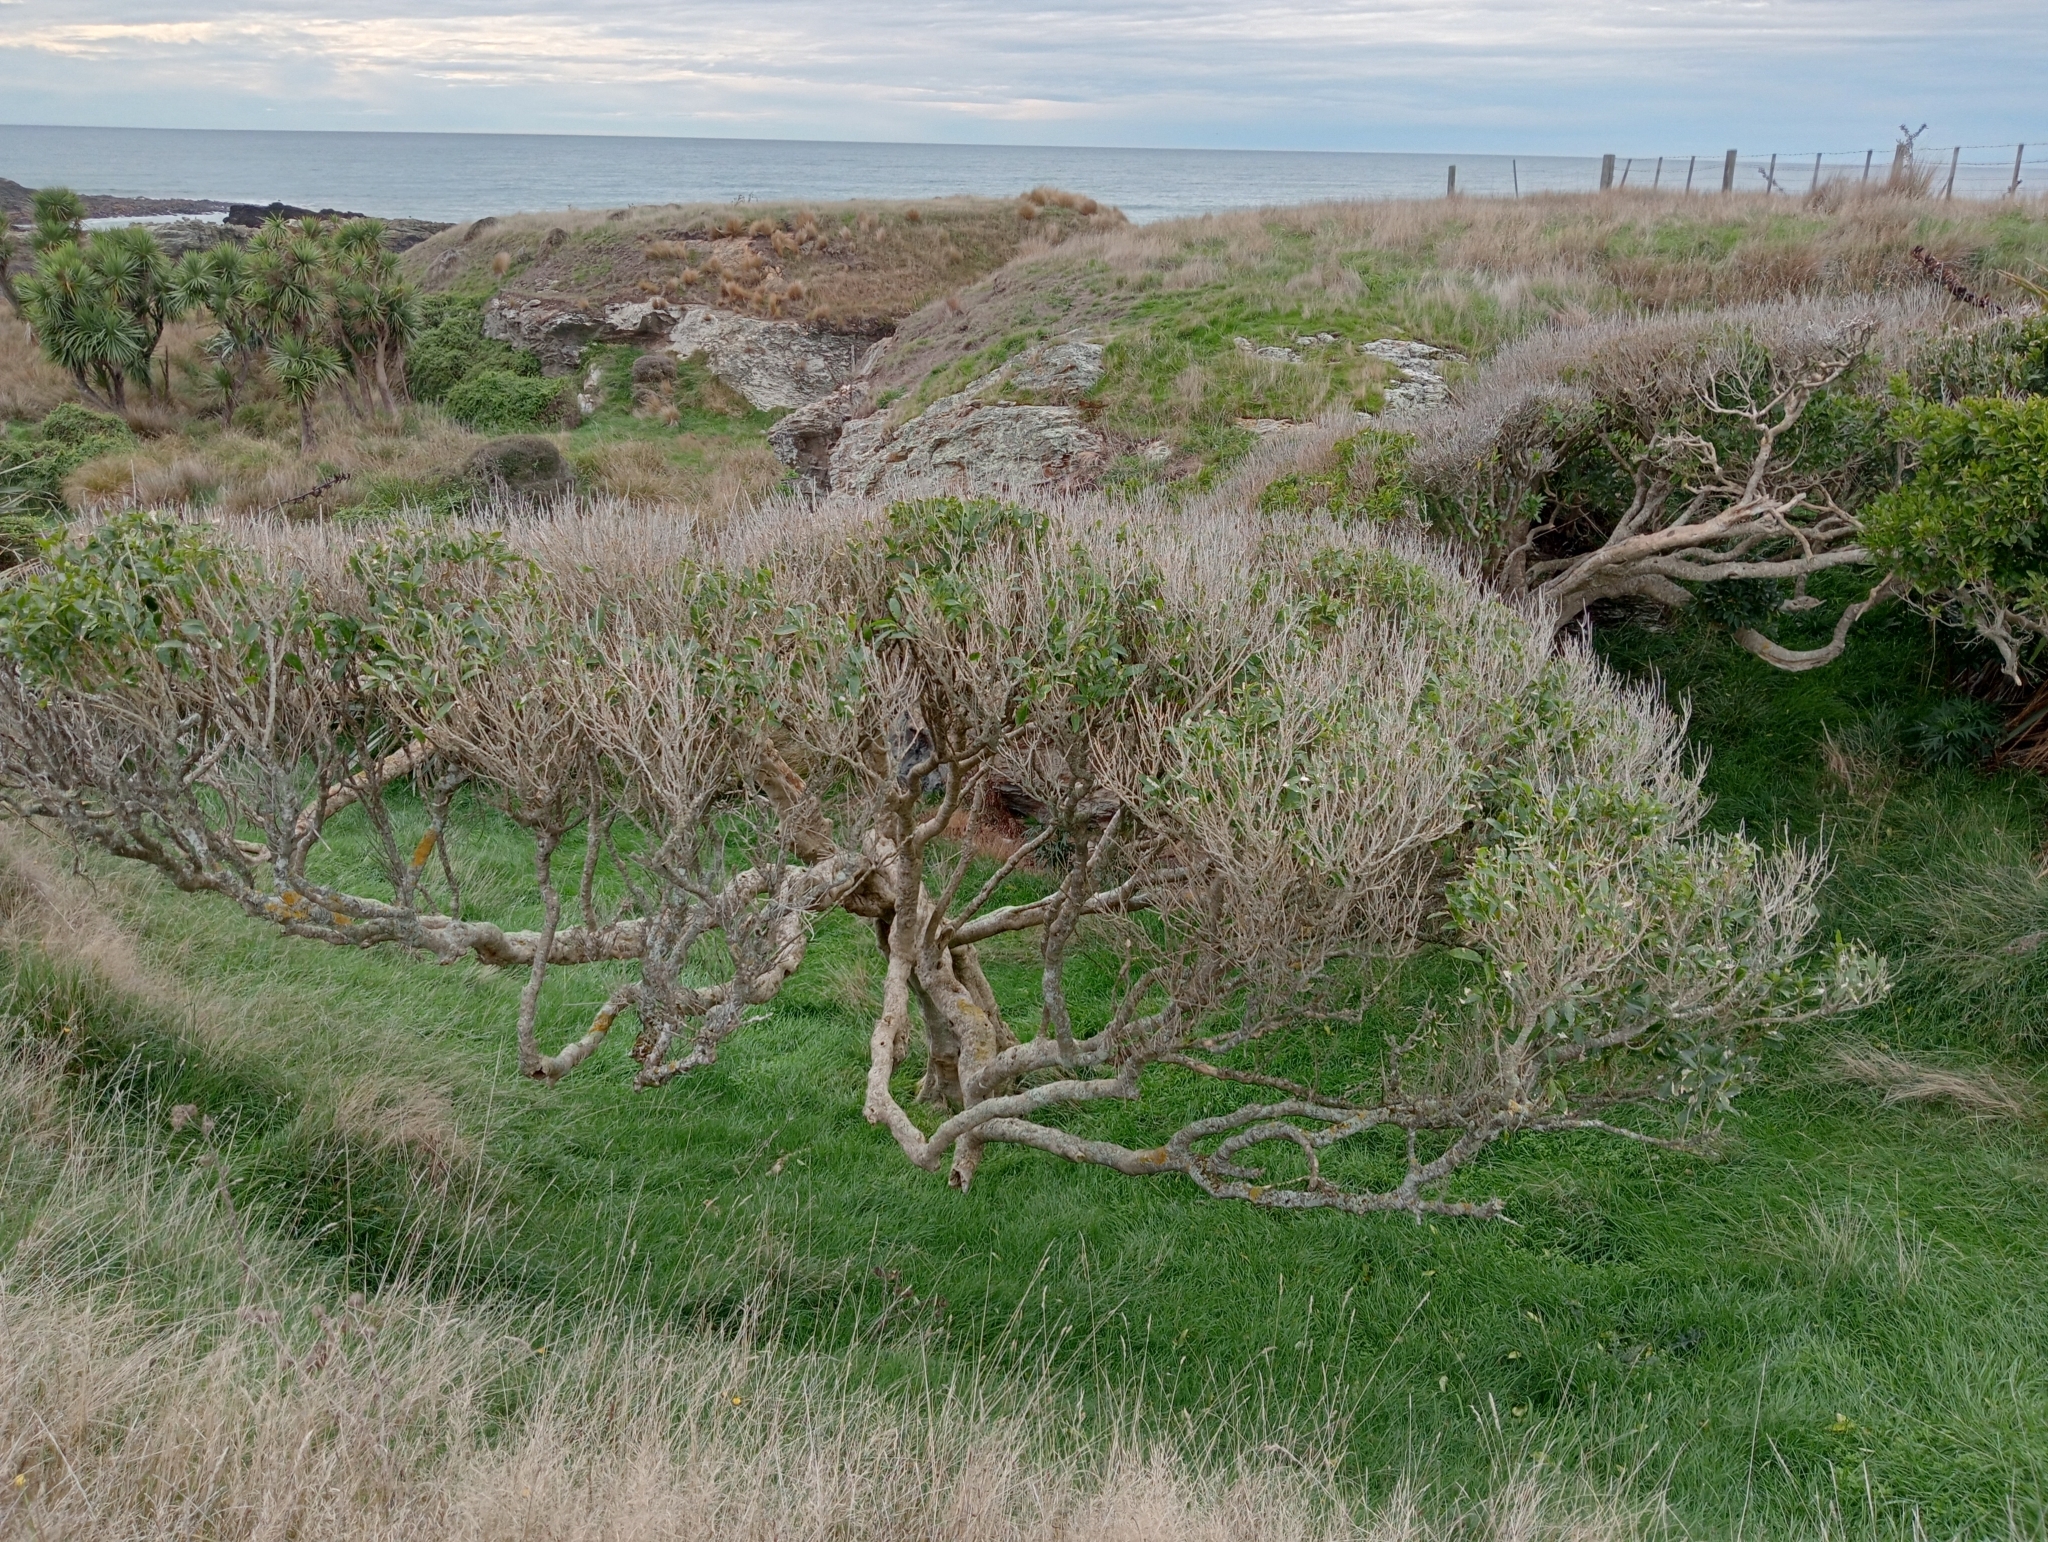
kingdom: Plantae
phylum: Tracheophyta
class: Magnoliopsida
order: Malpighiales
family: Violaceae
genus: Melicytus
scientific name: Melicytus ramiflorus
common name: Mahoe
